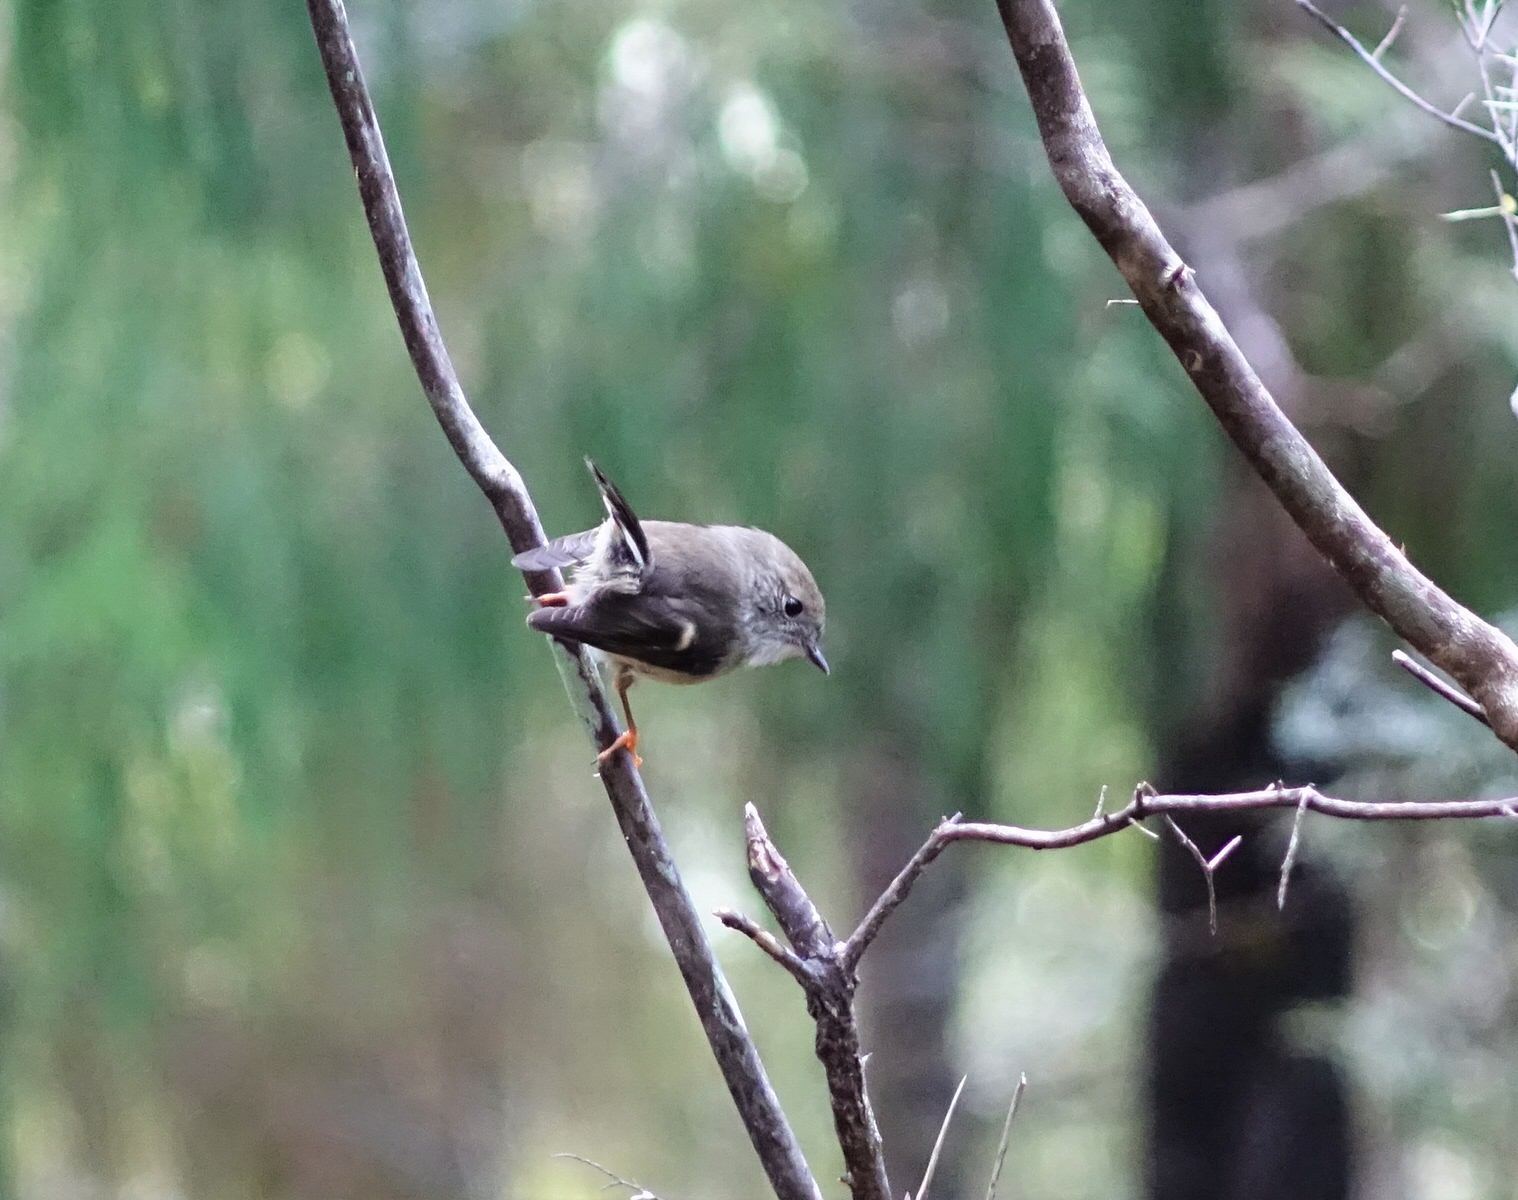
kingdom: Animalia
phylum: Chordata
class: Aves
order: Passeriformes
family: Petroicidae
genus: Petroica
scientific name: Petroica macrocephala
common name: Tomtit
